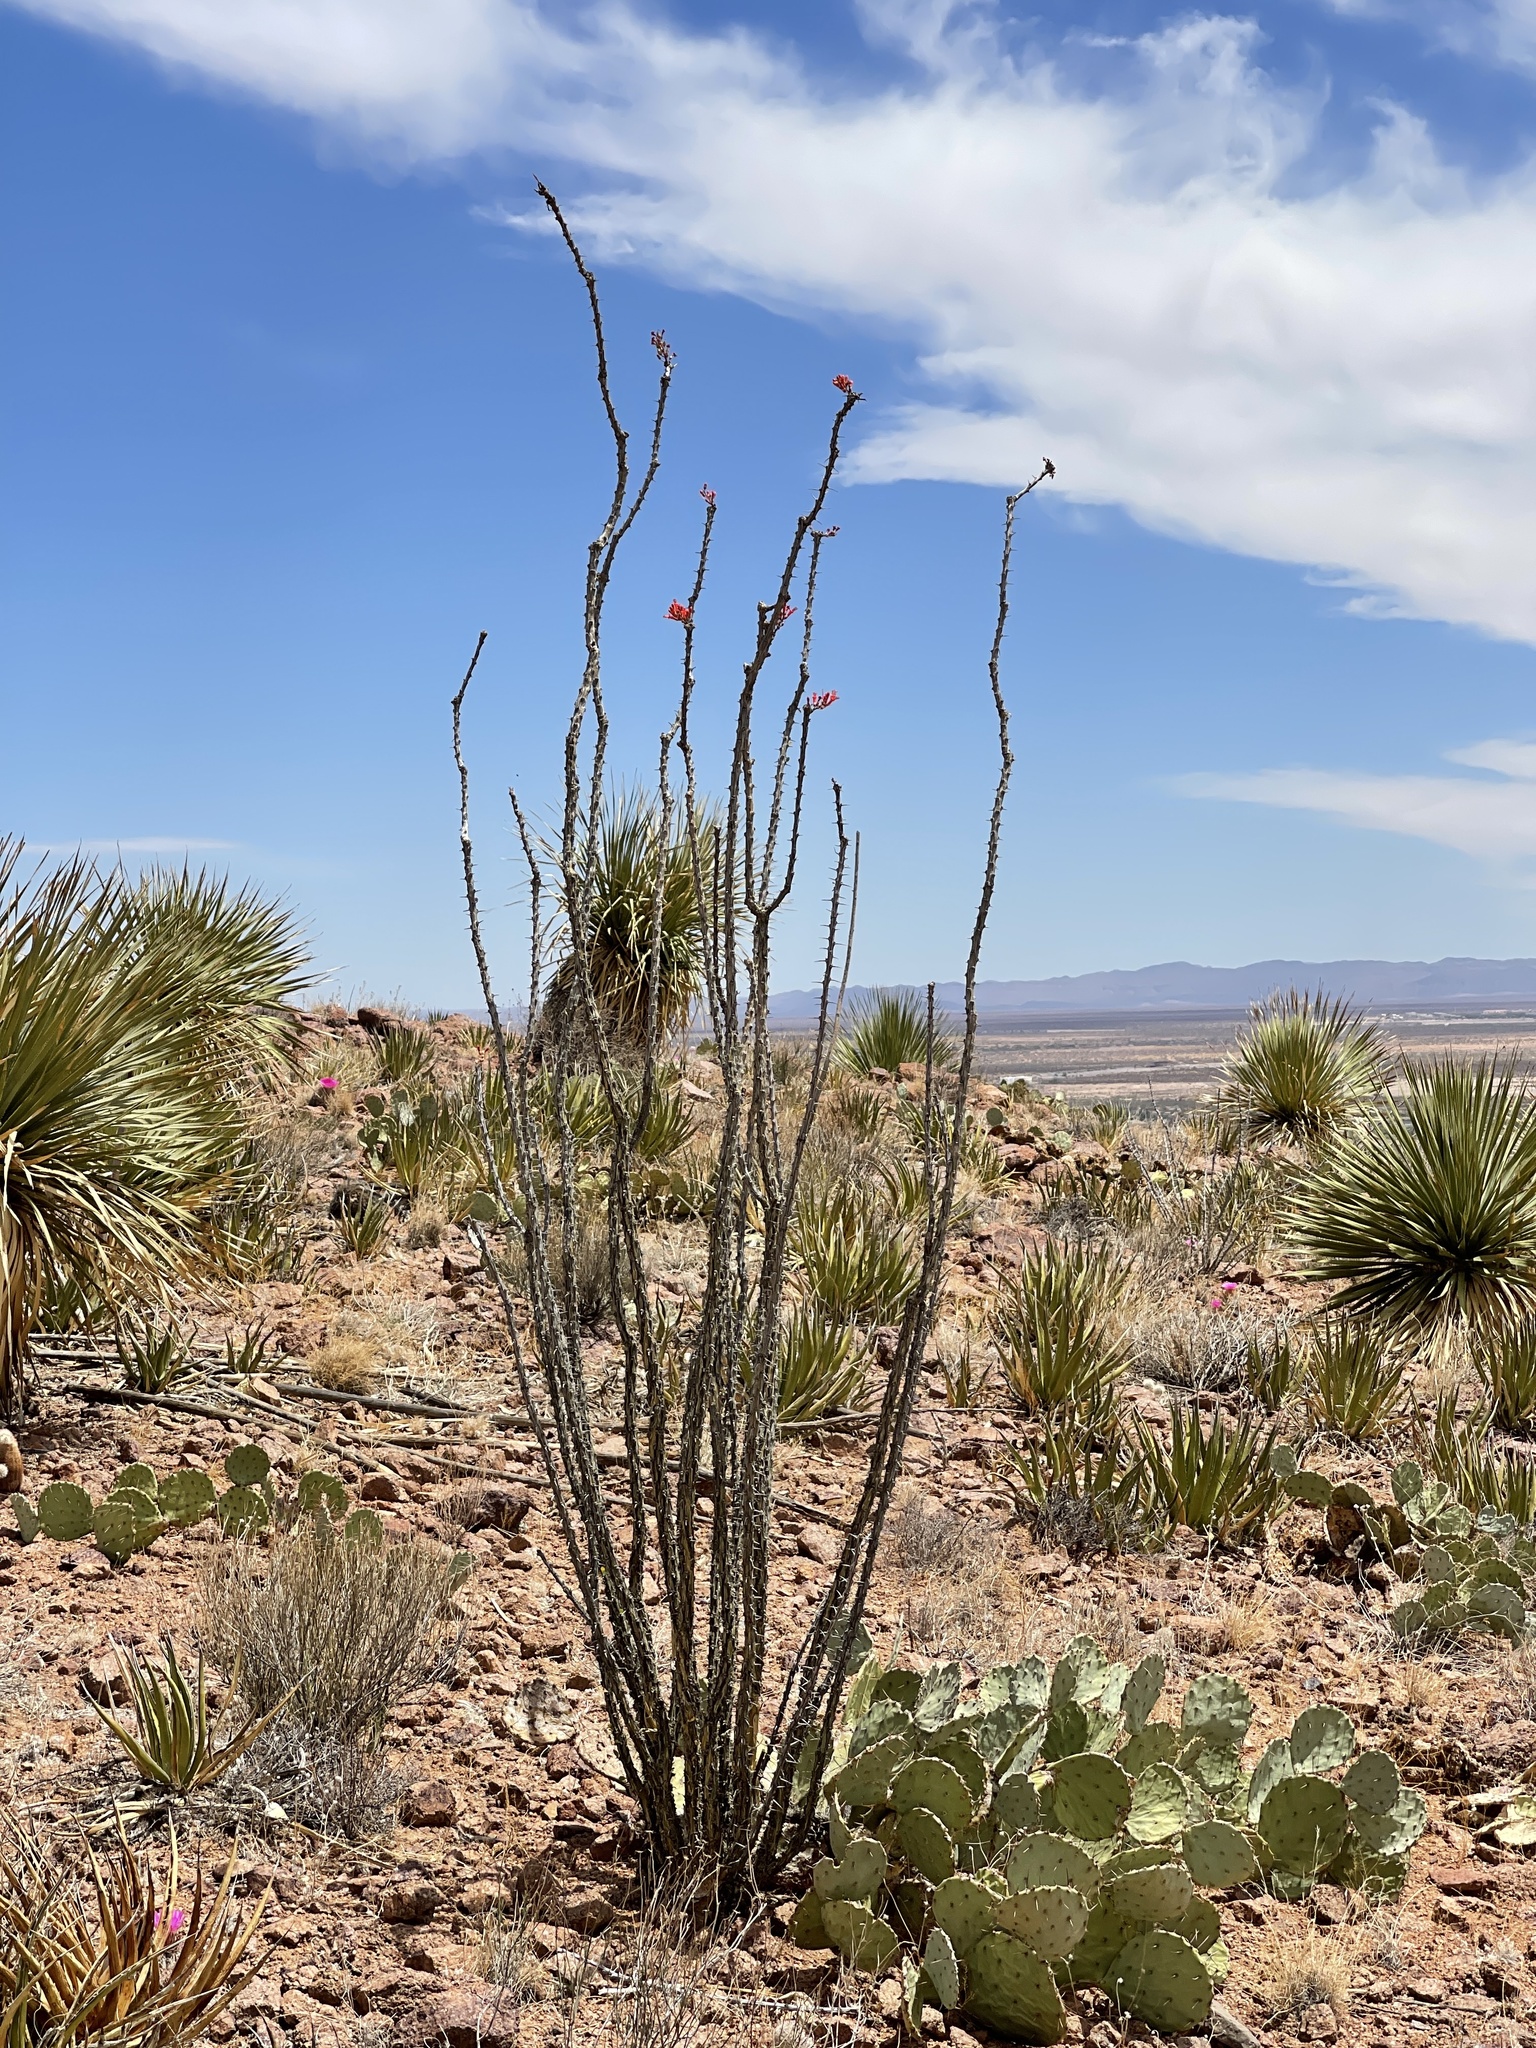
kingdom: Plantae
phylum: Tracheophyta
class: Magnoliopsida
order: Ericales
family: Fouquieriaceae
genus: Fouquieria
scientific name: Fouquieria splendens
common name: Vine-cactus
